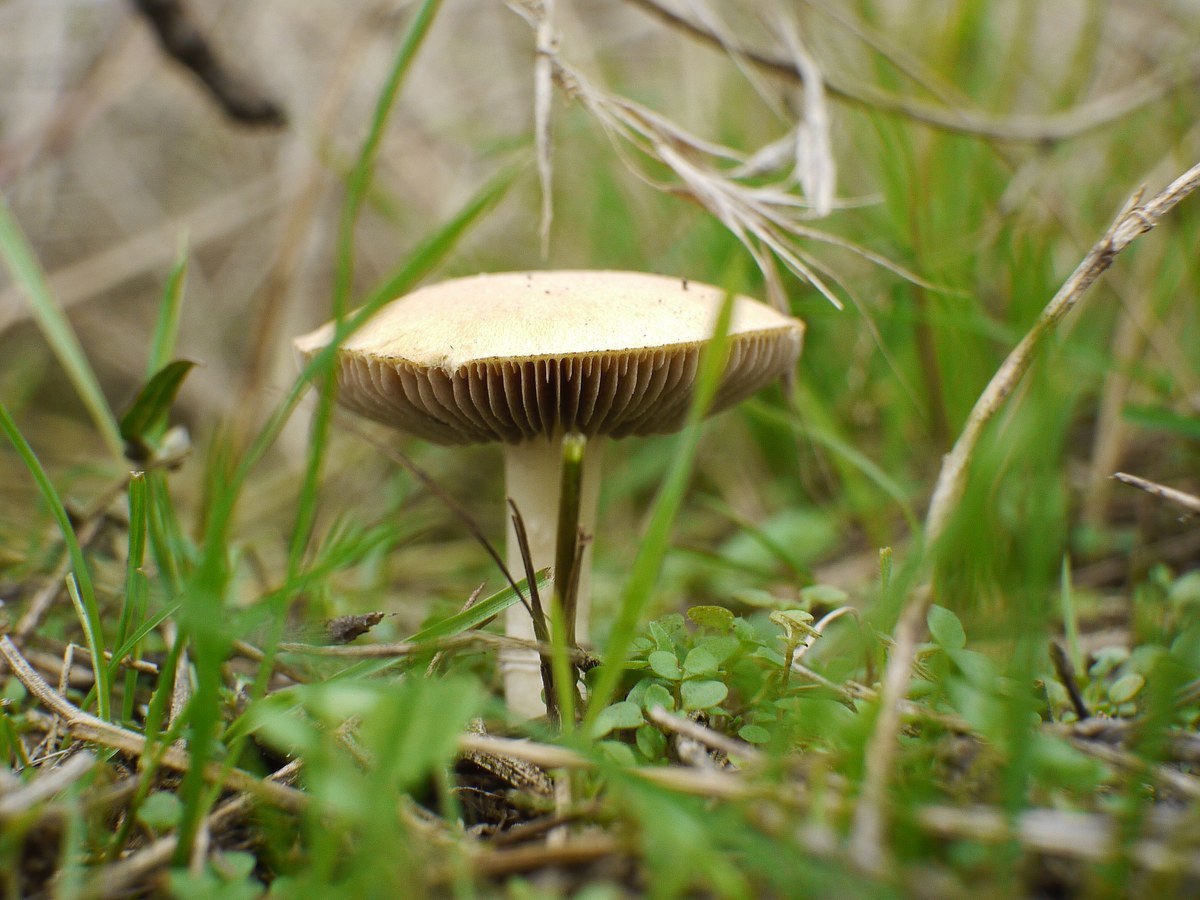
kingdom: Fungi
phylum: Basidiomycota
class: Agaricomycetes
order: Agaricales
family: Hymenogastraceae
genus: Psilocybe
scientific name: Psilocybe coronilla
